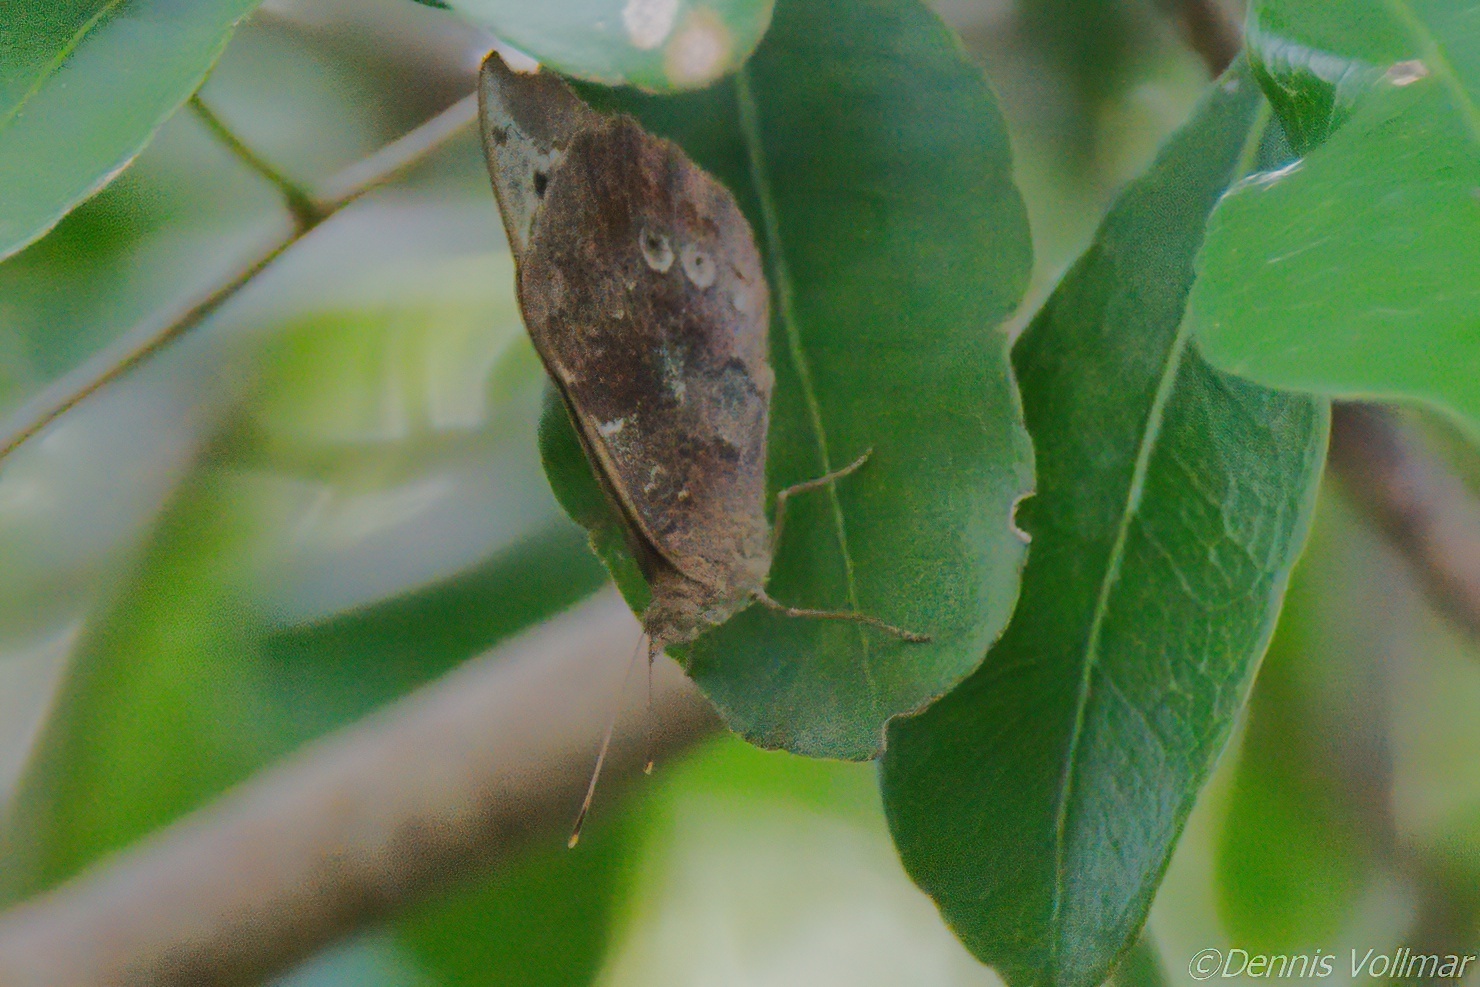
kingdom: Animalia
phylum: Arthropoda
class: Insecta
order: Lepidoptera
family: Nymphalidae
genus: Eunica
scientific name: Eunica tatila
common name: Florida purplewing
